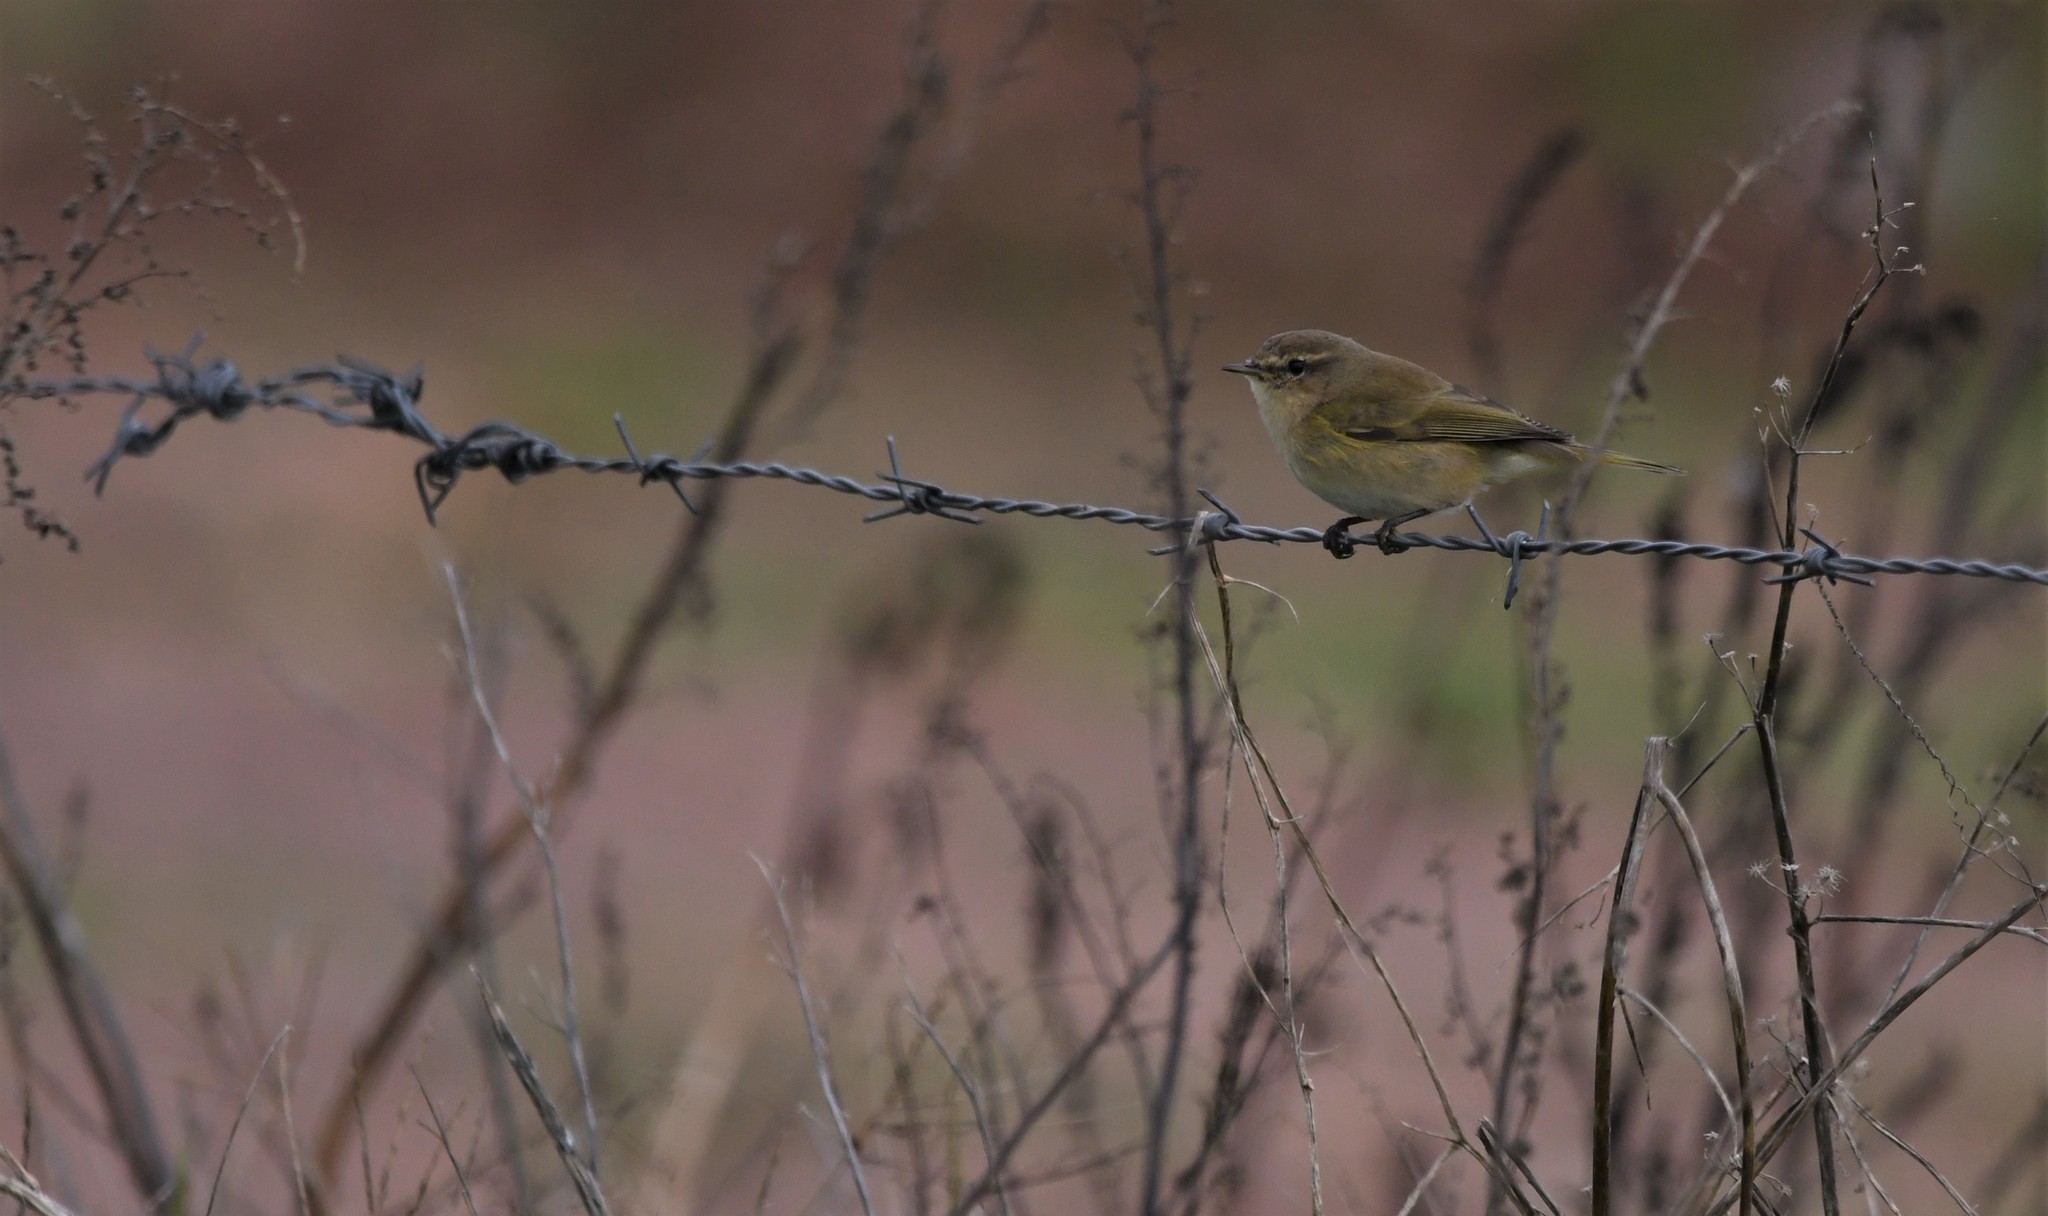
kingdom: Animalia
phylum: Chordata
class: Aves
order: Passeriformes
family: Phylloscopidae
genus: Phylloscopus
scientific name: Phylloscopus collybita
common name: Common chiffchaff
